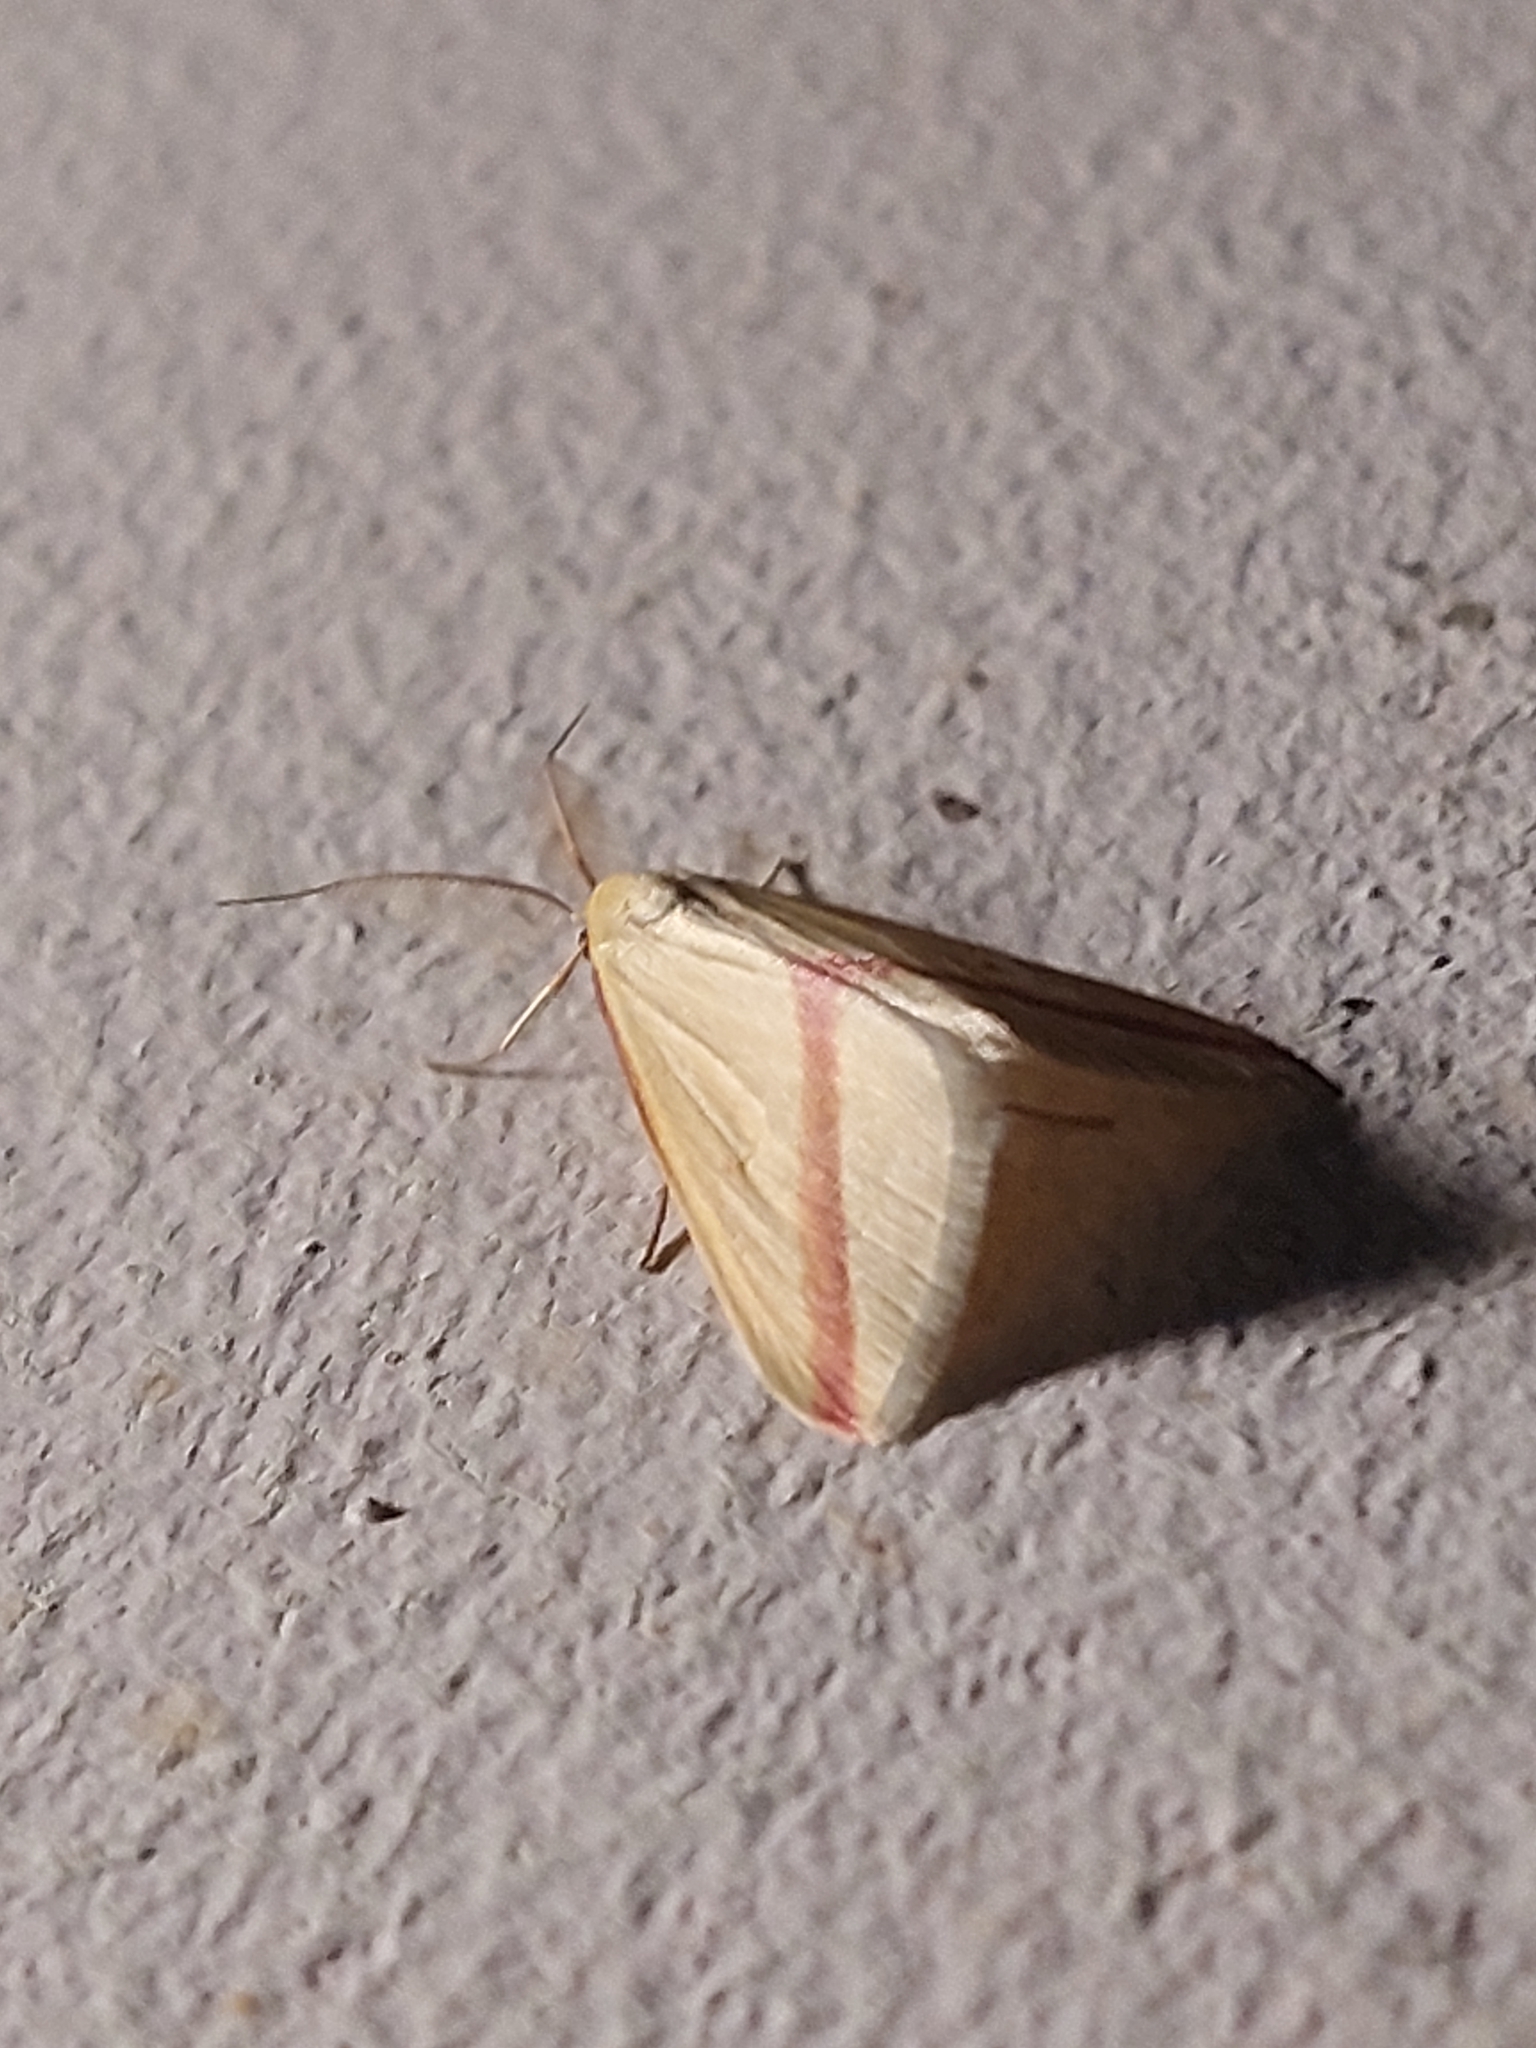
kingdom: Animalia
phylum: Arthropoda
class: Insecta
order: Lepidoptera
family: Geometridae
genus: Rhodometra
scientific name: Rhodometra sacraria
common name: Vestal
